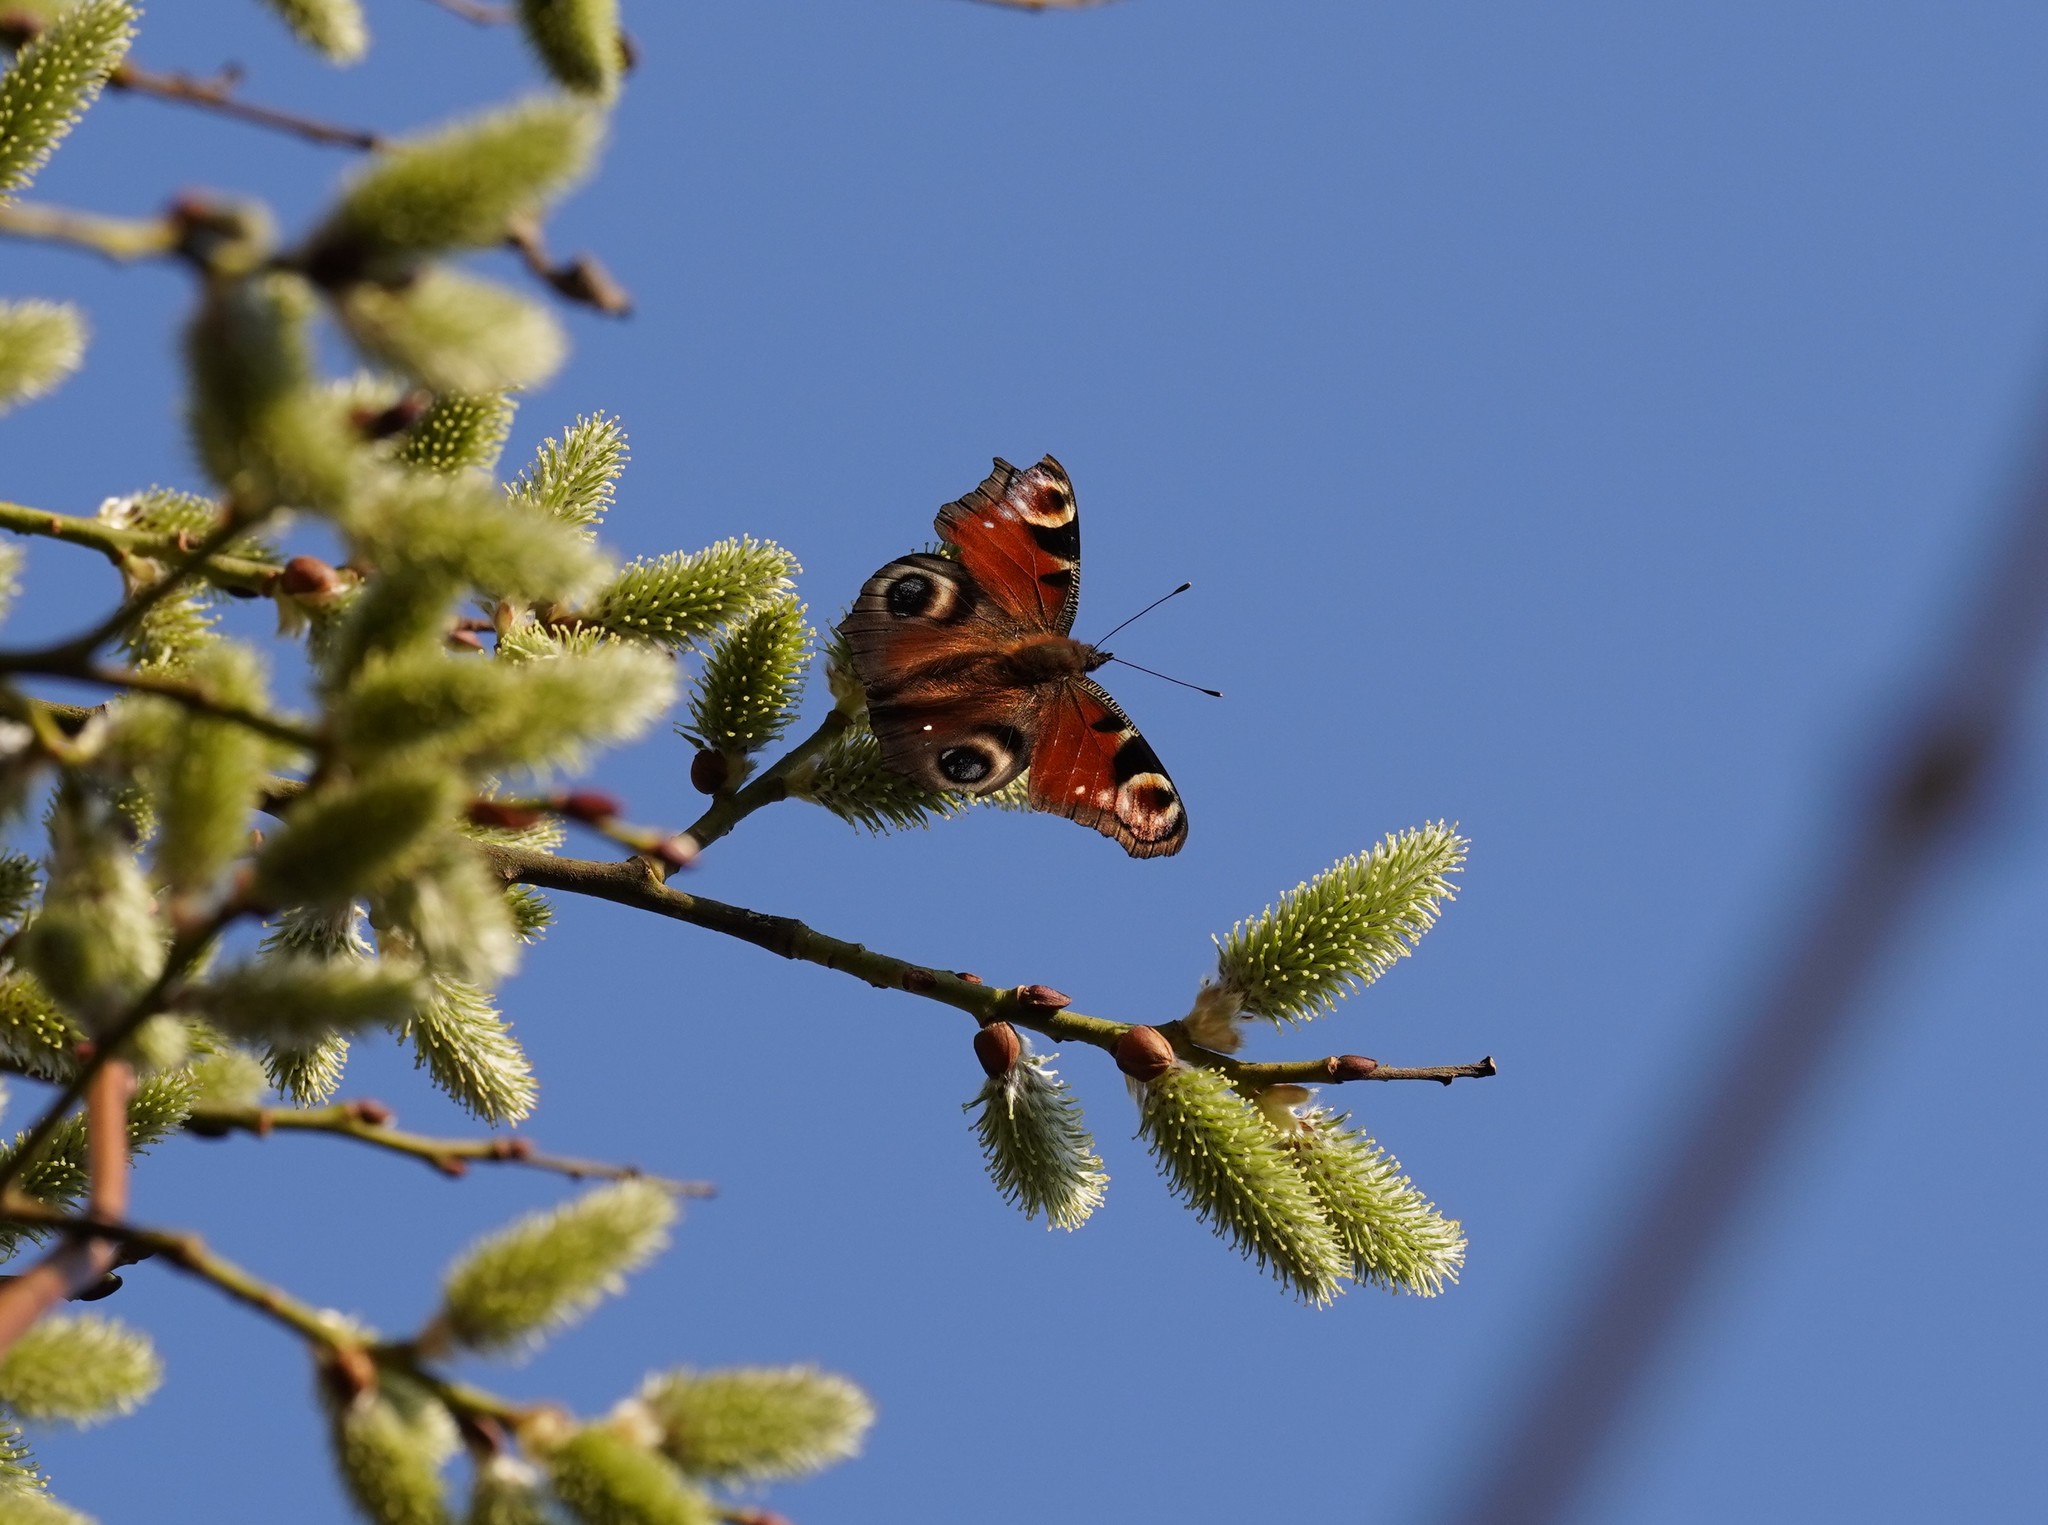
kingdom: Animalia
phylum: Arthropoda
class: Insecta
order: Lepidoptera
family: Nymphalidae
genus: Aglais
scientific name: Aglais io
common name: Peacock
